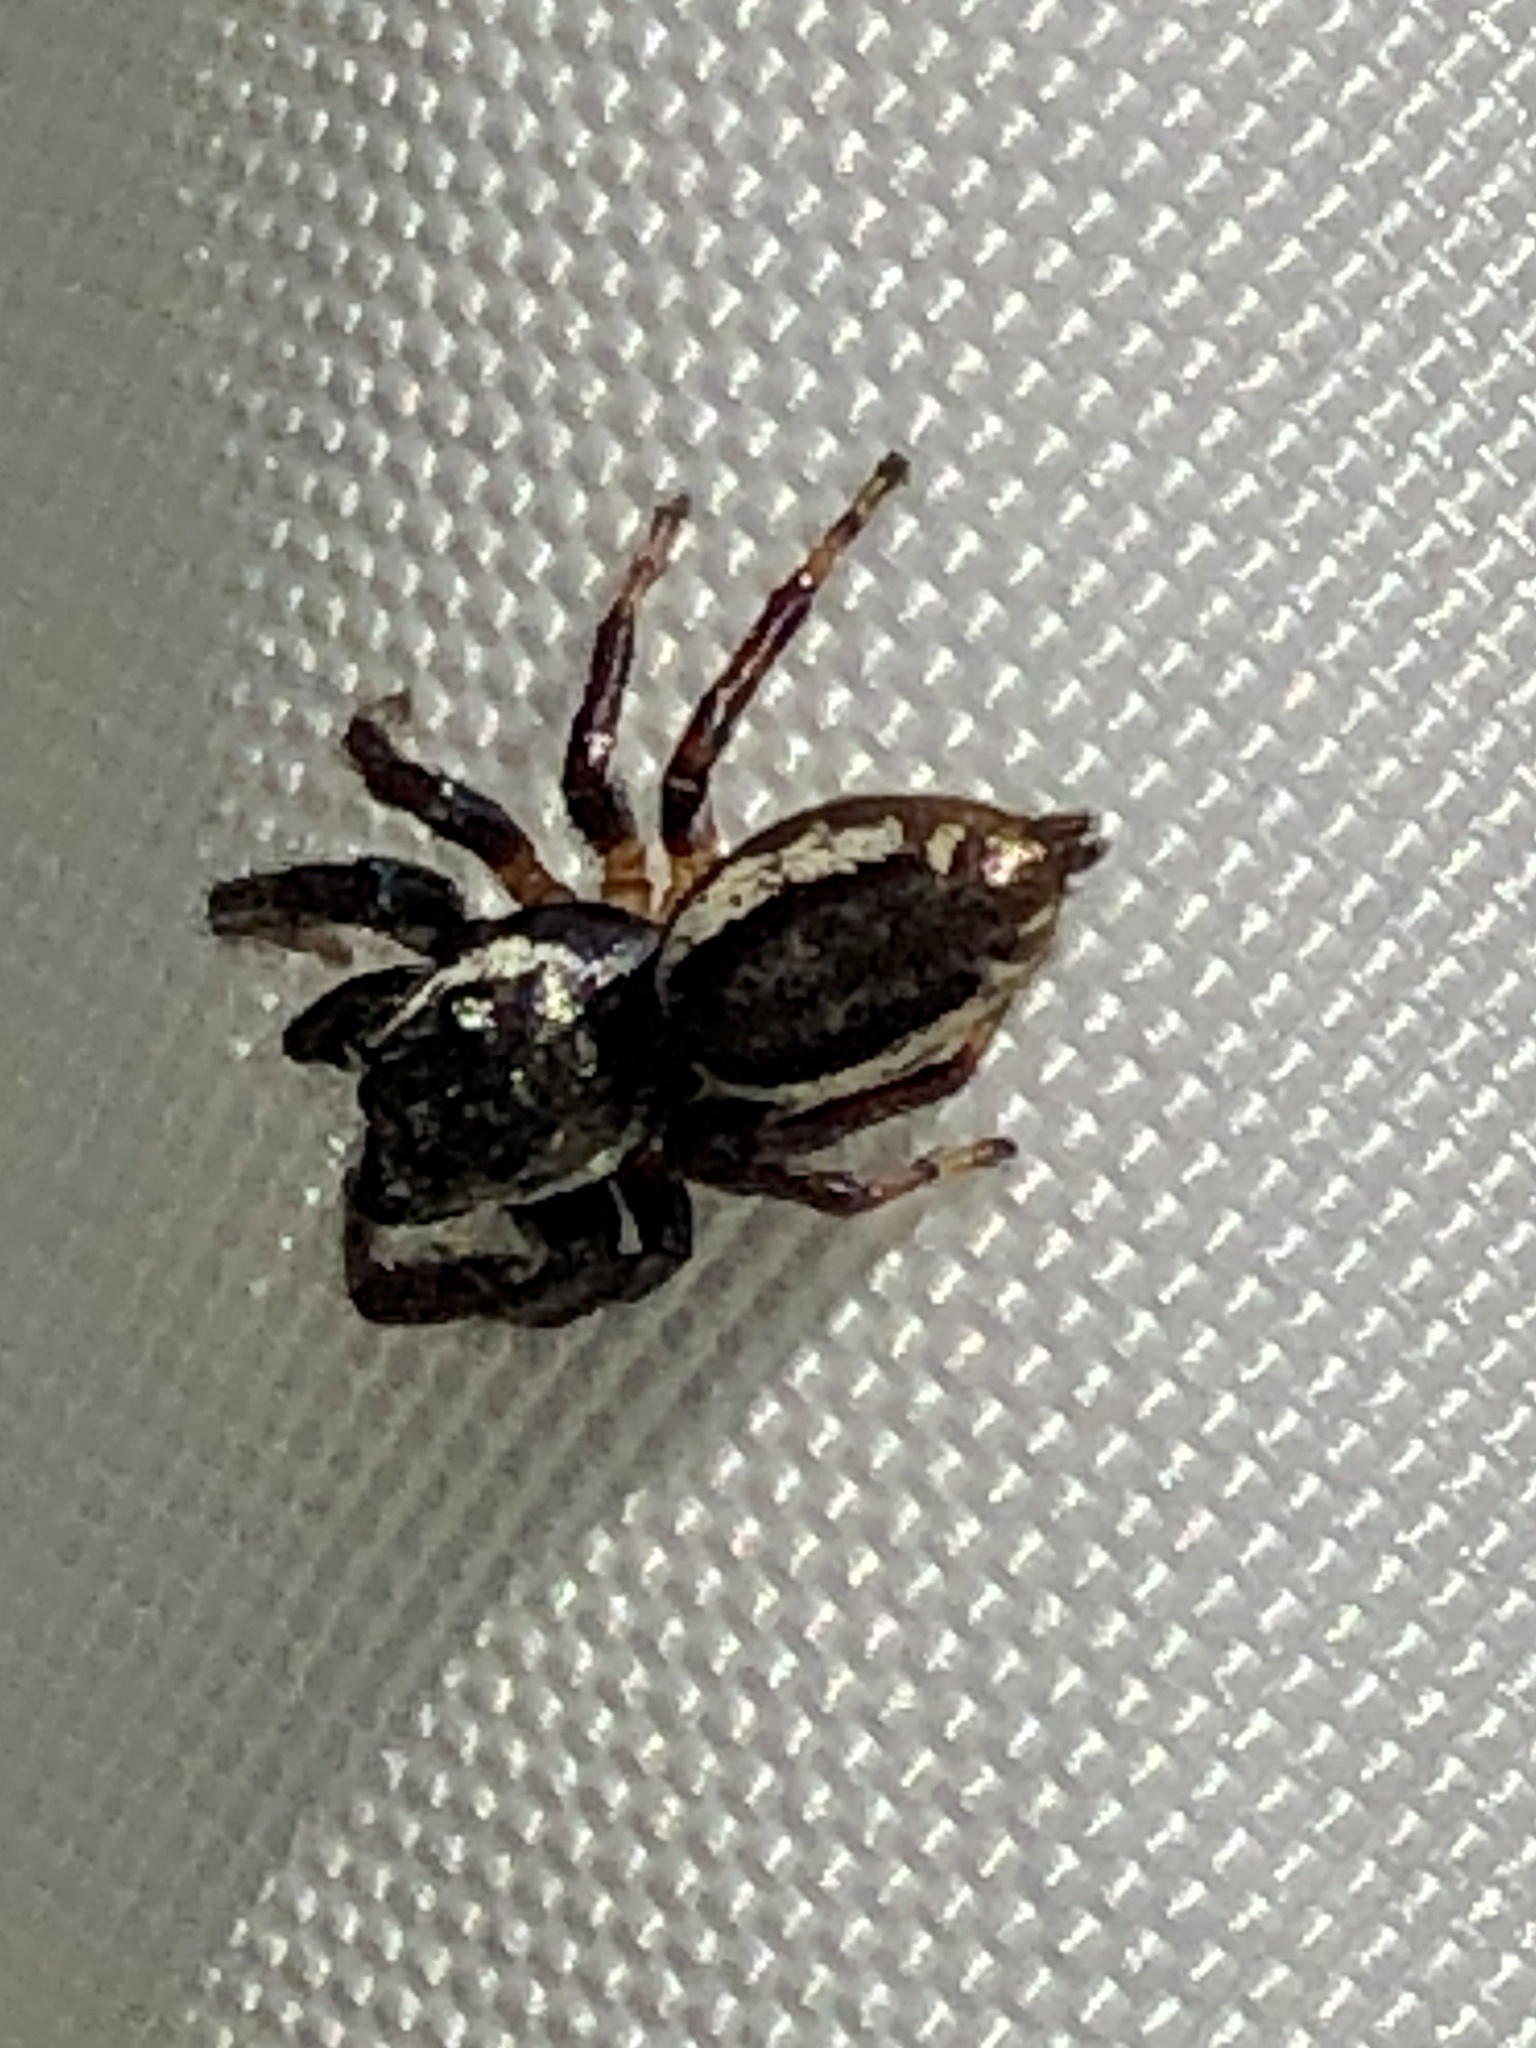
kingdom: Animalia
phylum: Arthropoda
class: Arachnida
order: Araneae
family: Salticidae
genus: Eris
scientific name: Eris militaris
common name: Bronze jumper
